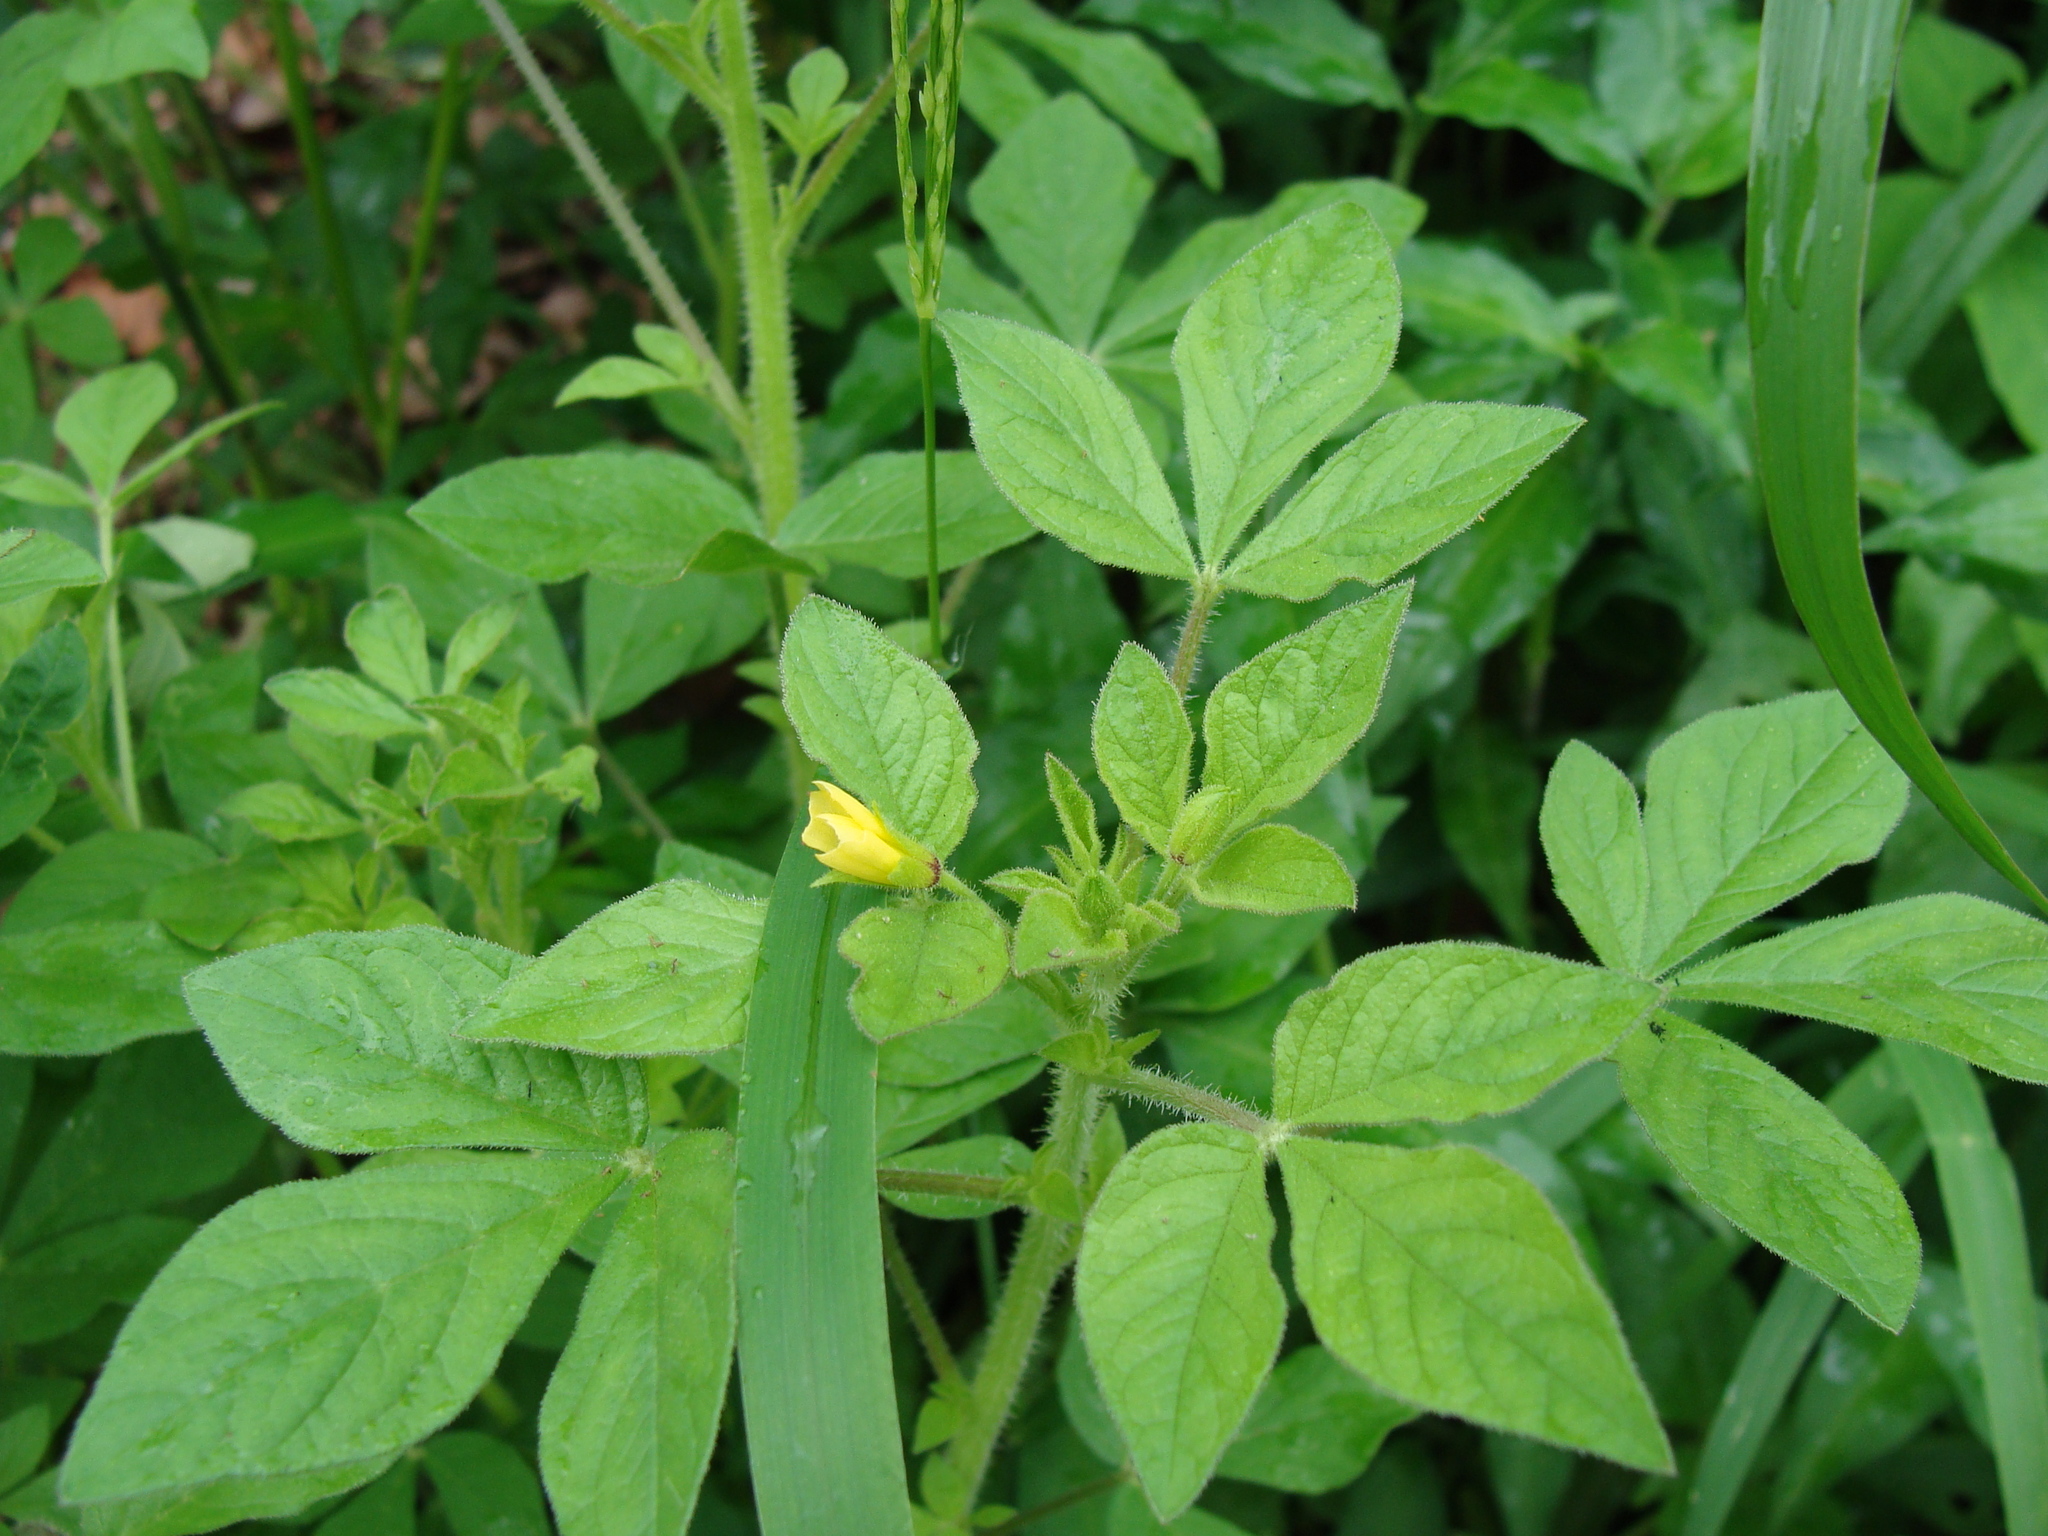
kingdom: Plantae
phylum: Tracheophyta
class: Magnoliopsida
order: Brassicales
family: Cleomaceae
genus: Arivela
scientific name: Arivela viscosa
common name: Asian spiderflower
